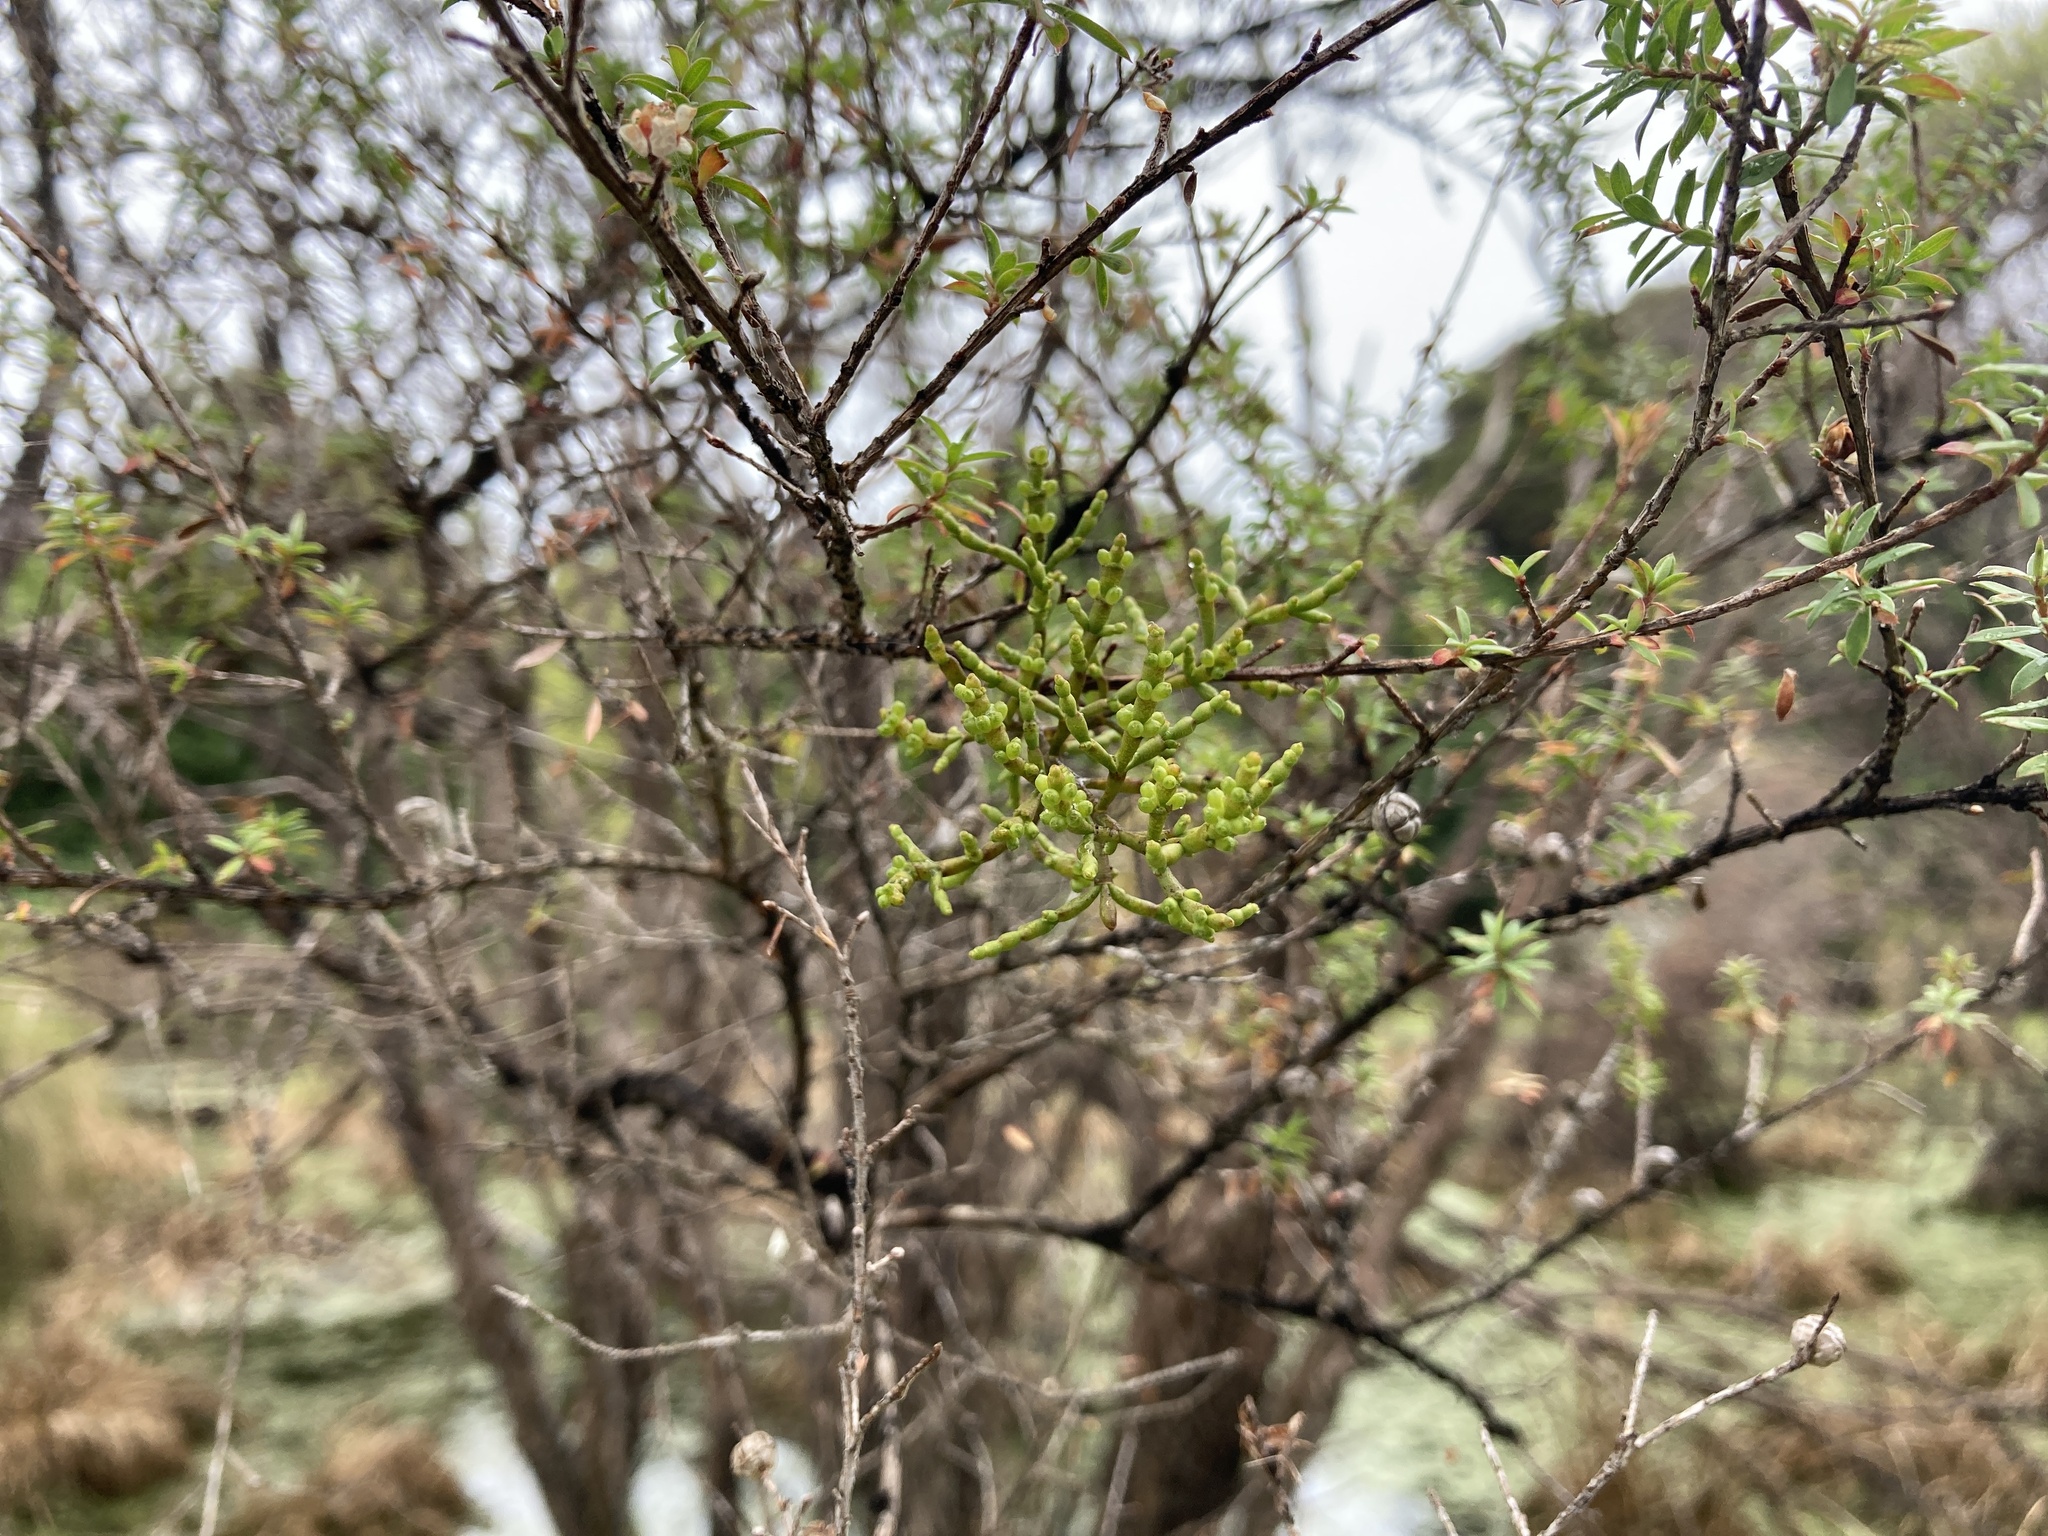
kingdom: Plantae
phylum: Tracheophyta
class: Magnoliopsida
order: Santalales
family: Viscaceae
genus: Korthalsella
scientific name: Korthalsella salicornioides
